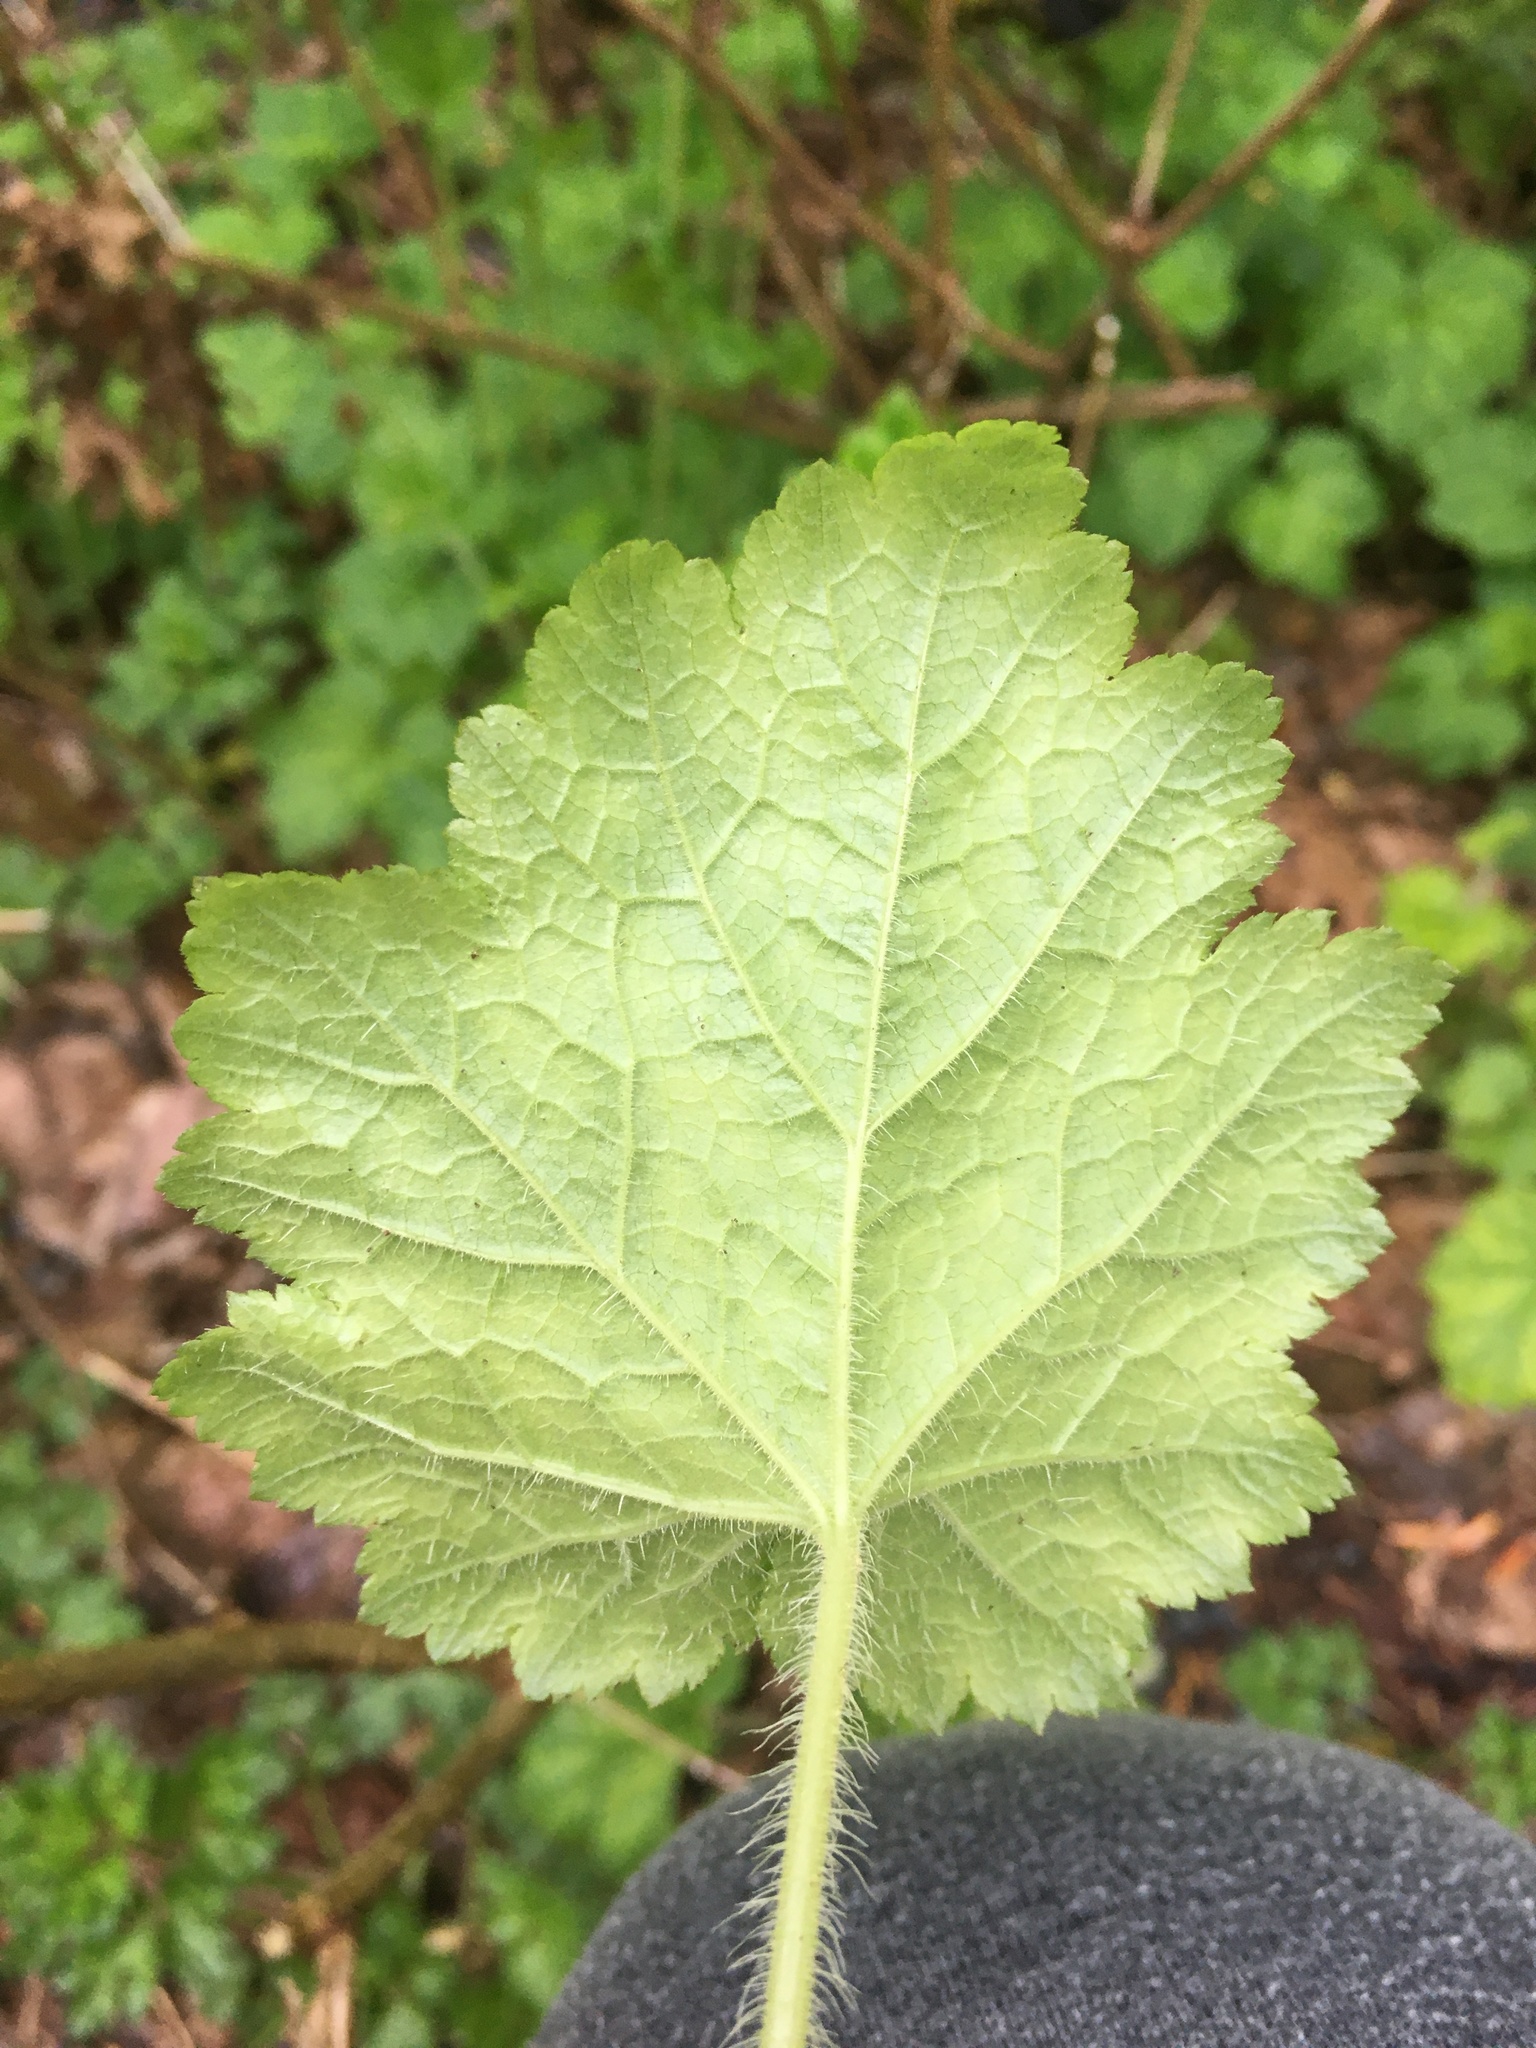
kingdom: Plantae
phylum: Tracheophyta
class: Magnoliopsida
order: Saxifragales
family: Saxifragaceae
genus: Tellima
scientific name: Tellima grandiflora
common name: Fringecups
